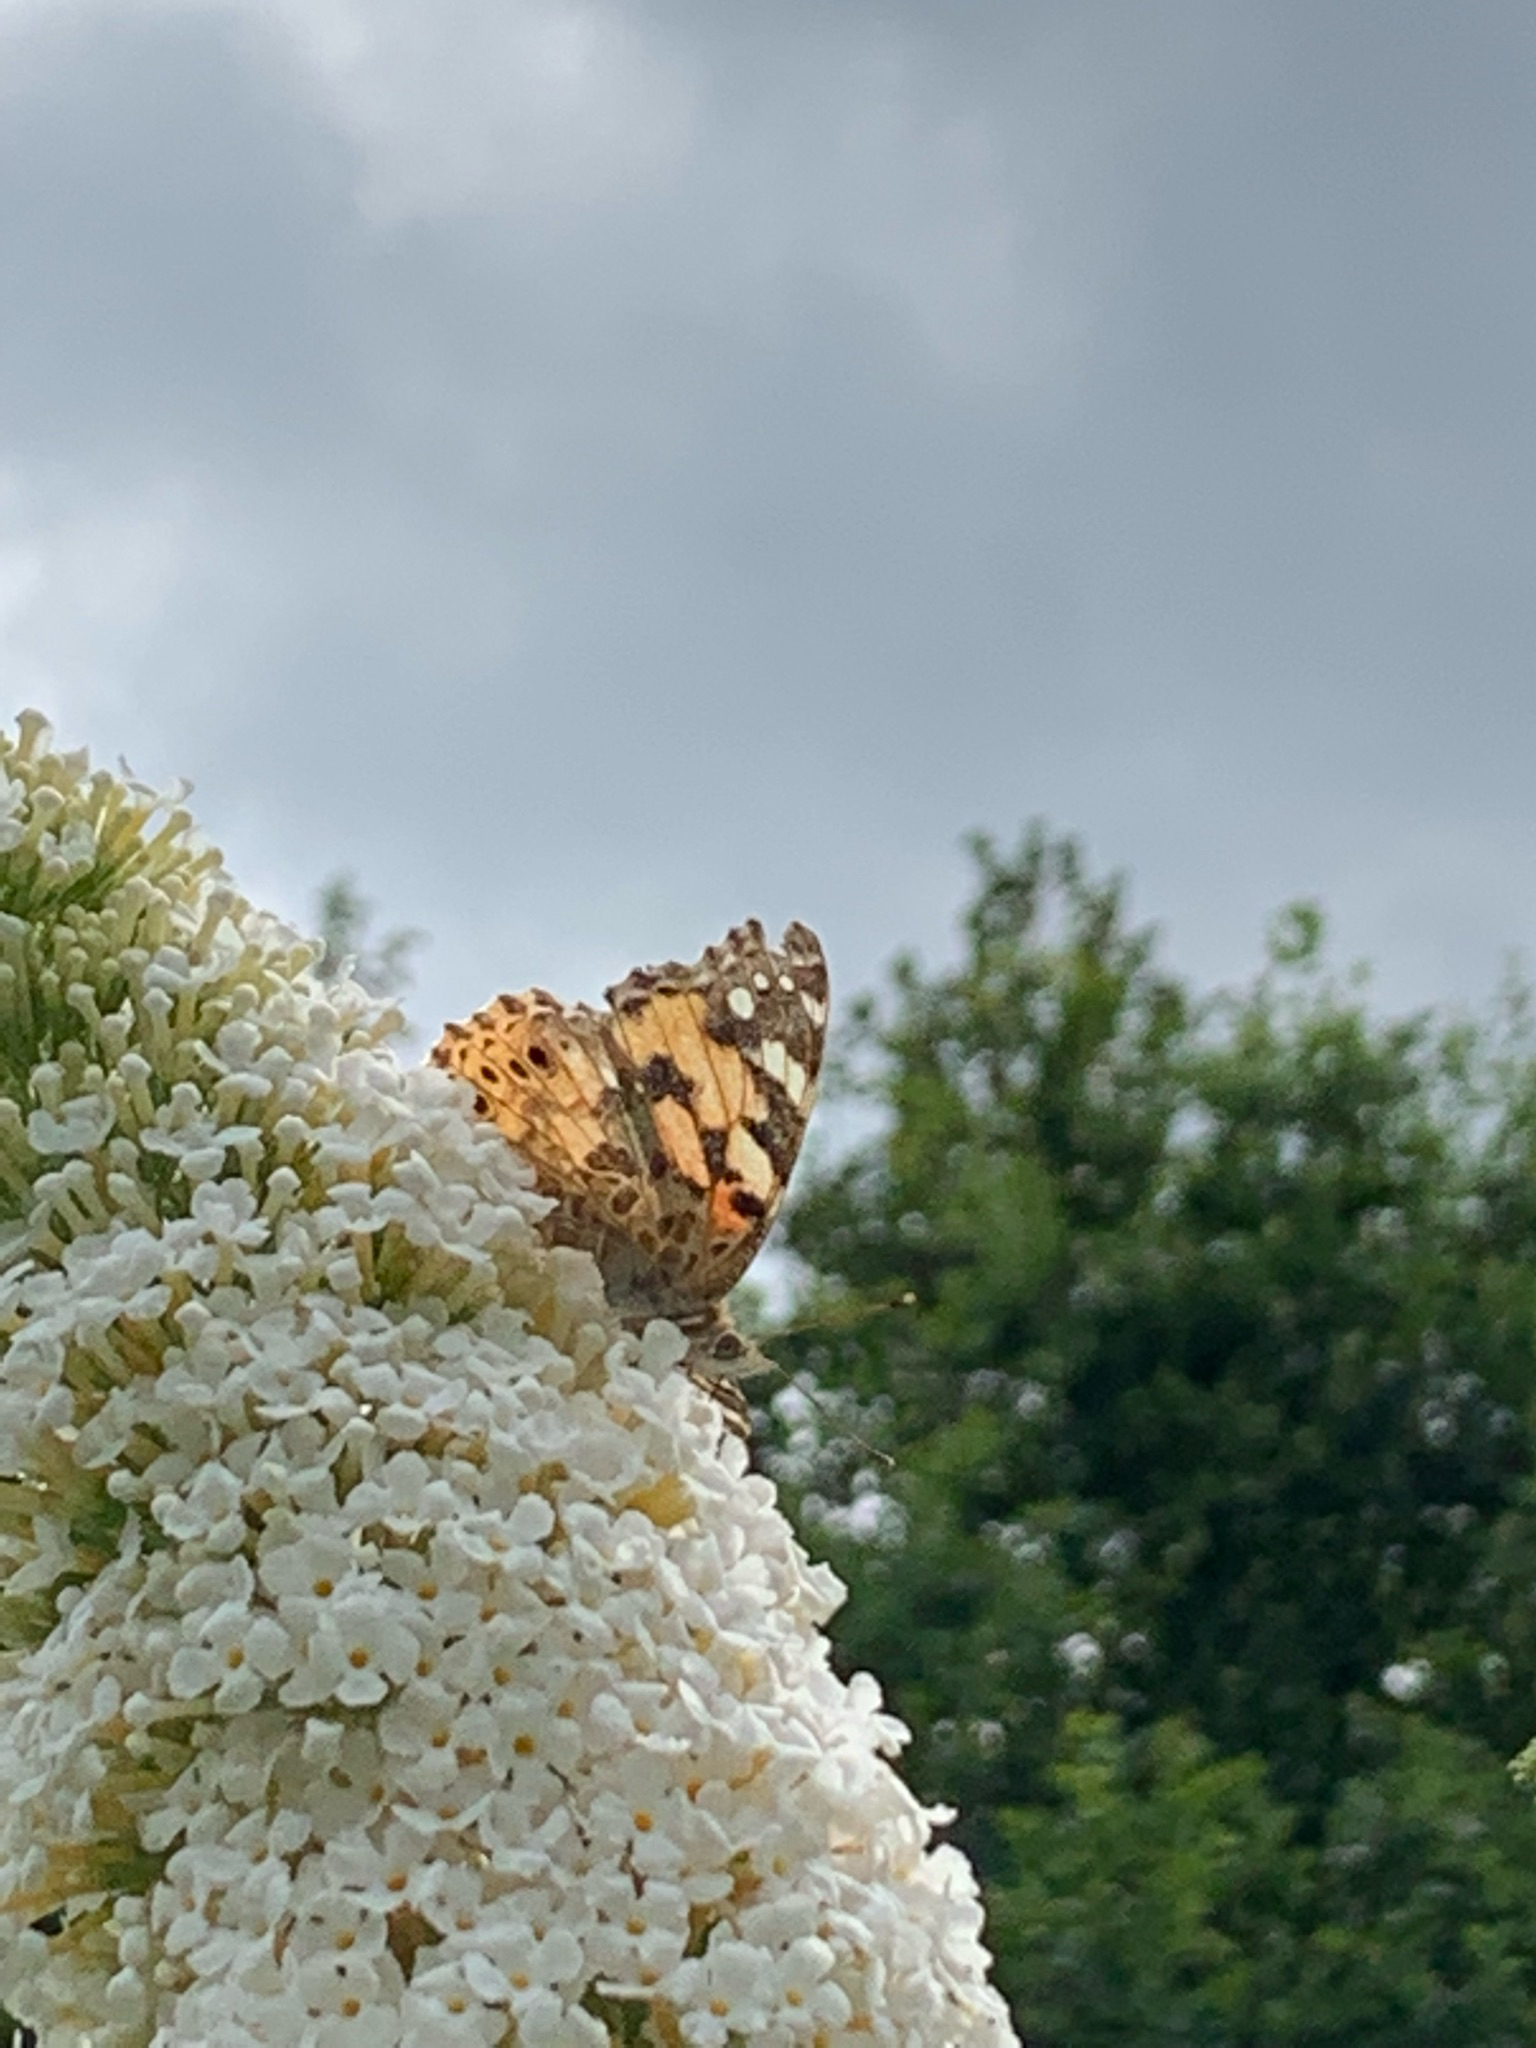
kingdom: Animalia
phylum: Arthropoda
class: Insecta
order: Lepidoptera
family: Nymphalidae
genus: Vanessa
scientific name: Vanessa cardui
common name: Painted lady
